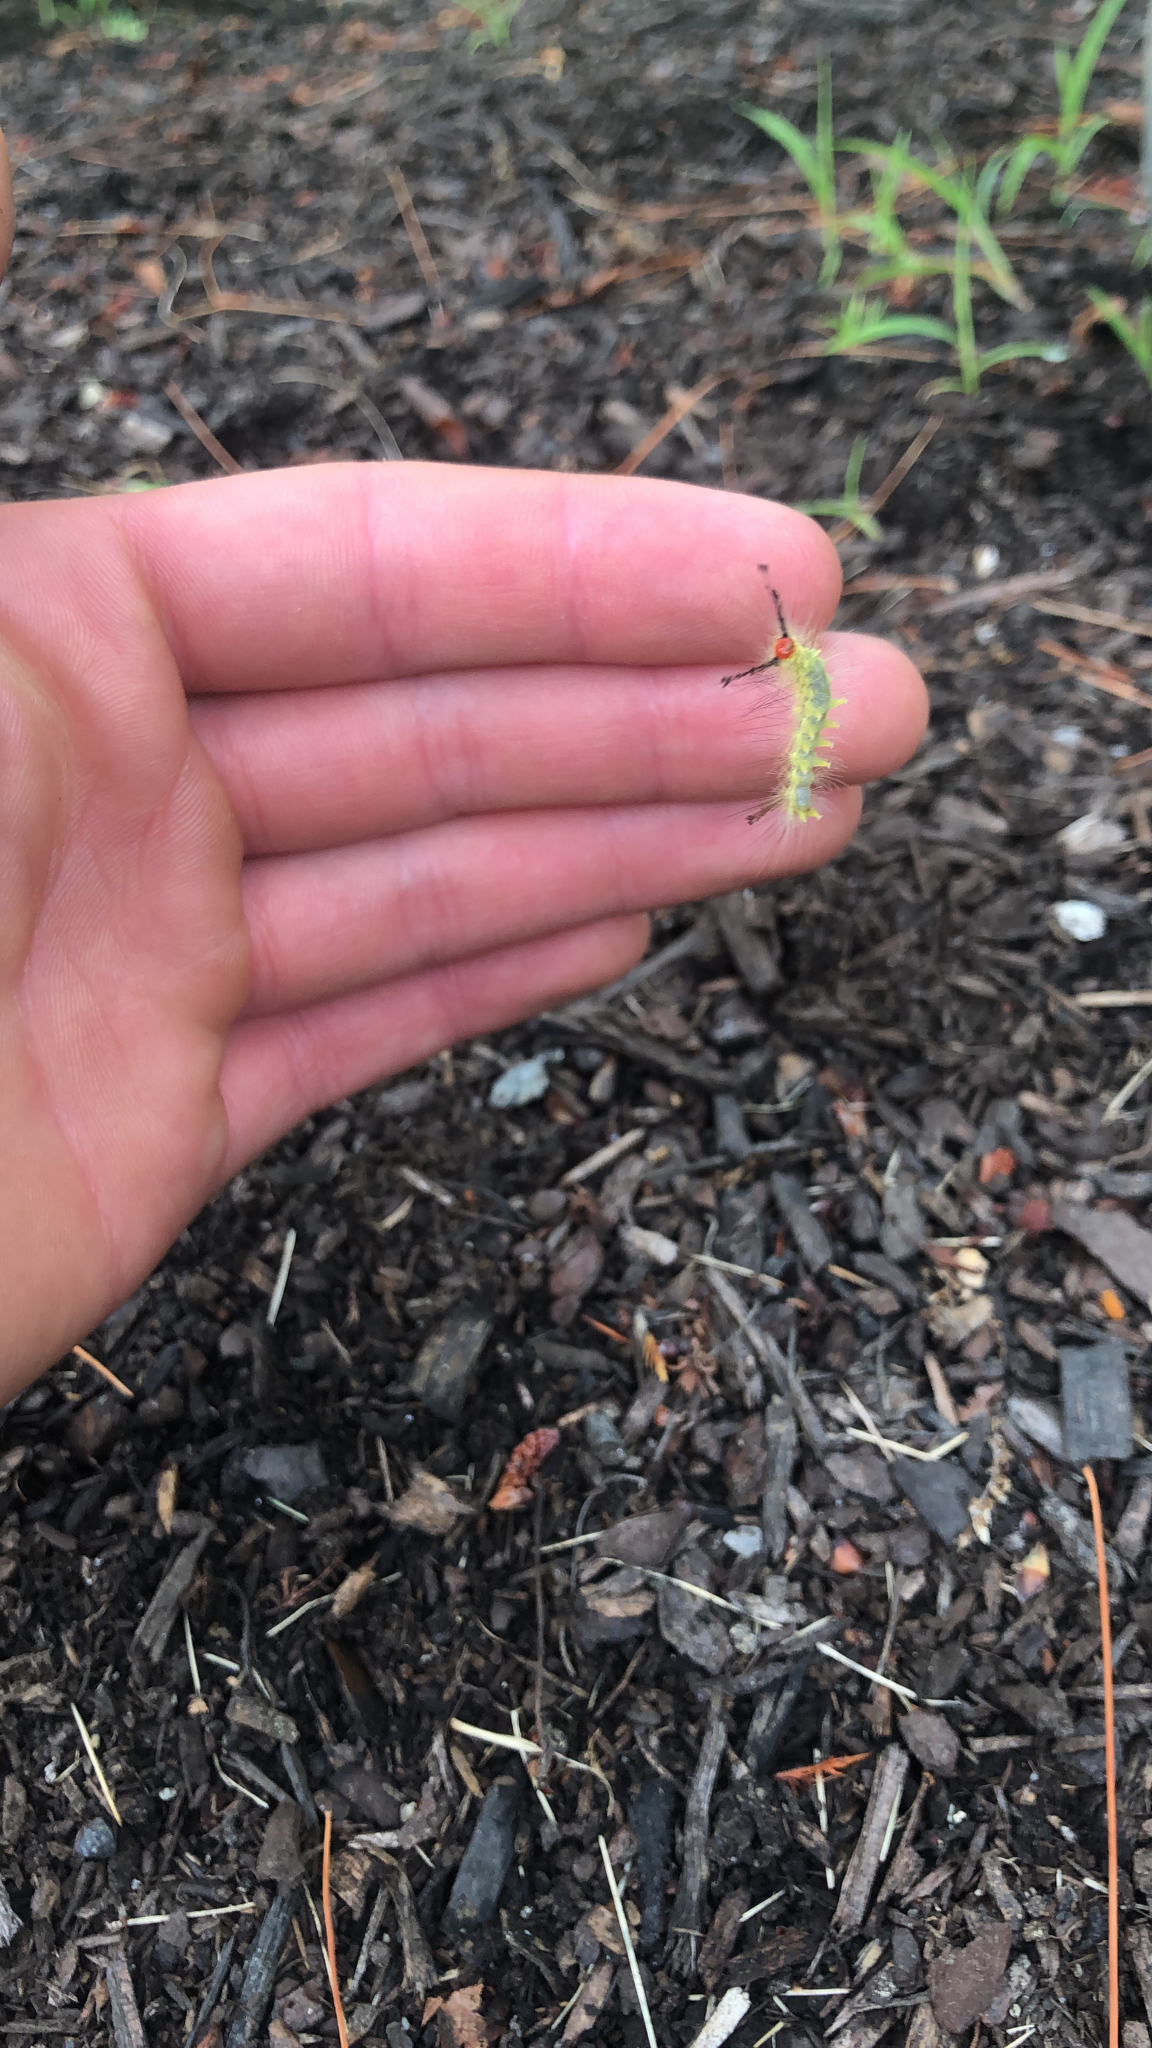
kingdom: Animalia
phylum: Arthropoda
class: Insecta
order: Lepidoptera
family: Erebidae
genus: Orgyia
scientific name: Orgyia leucostigma
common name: White-marked tussock moth
